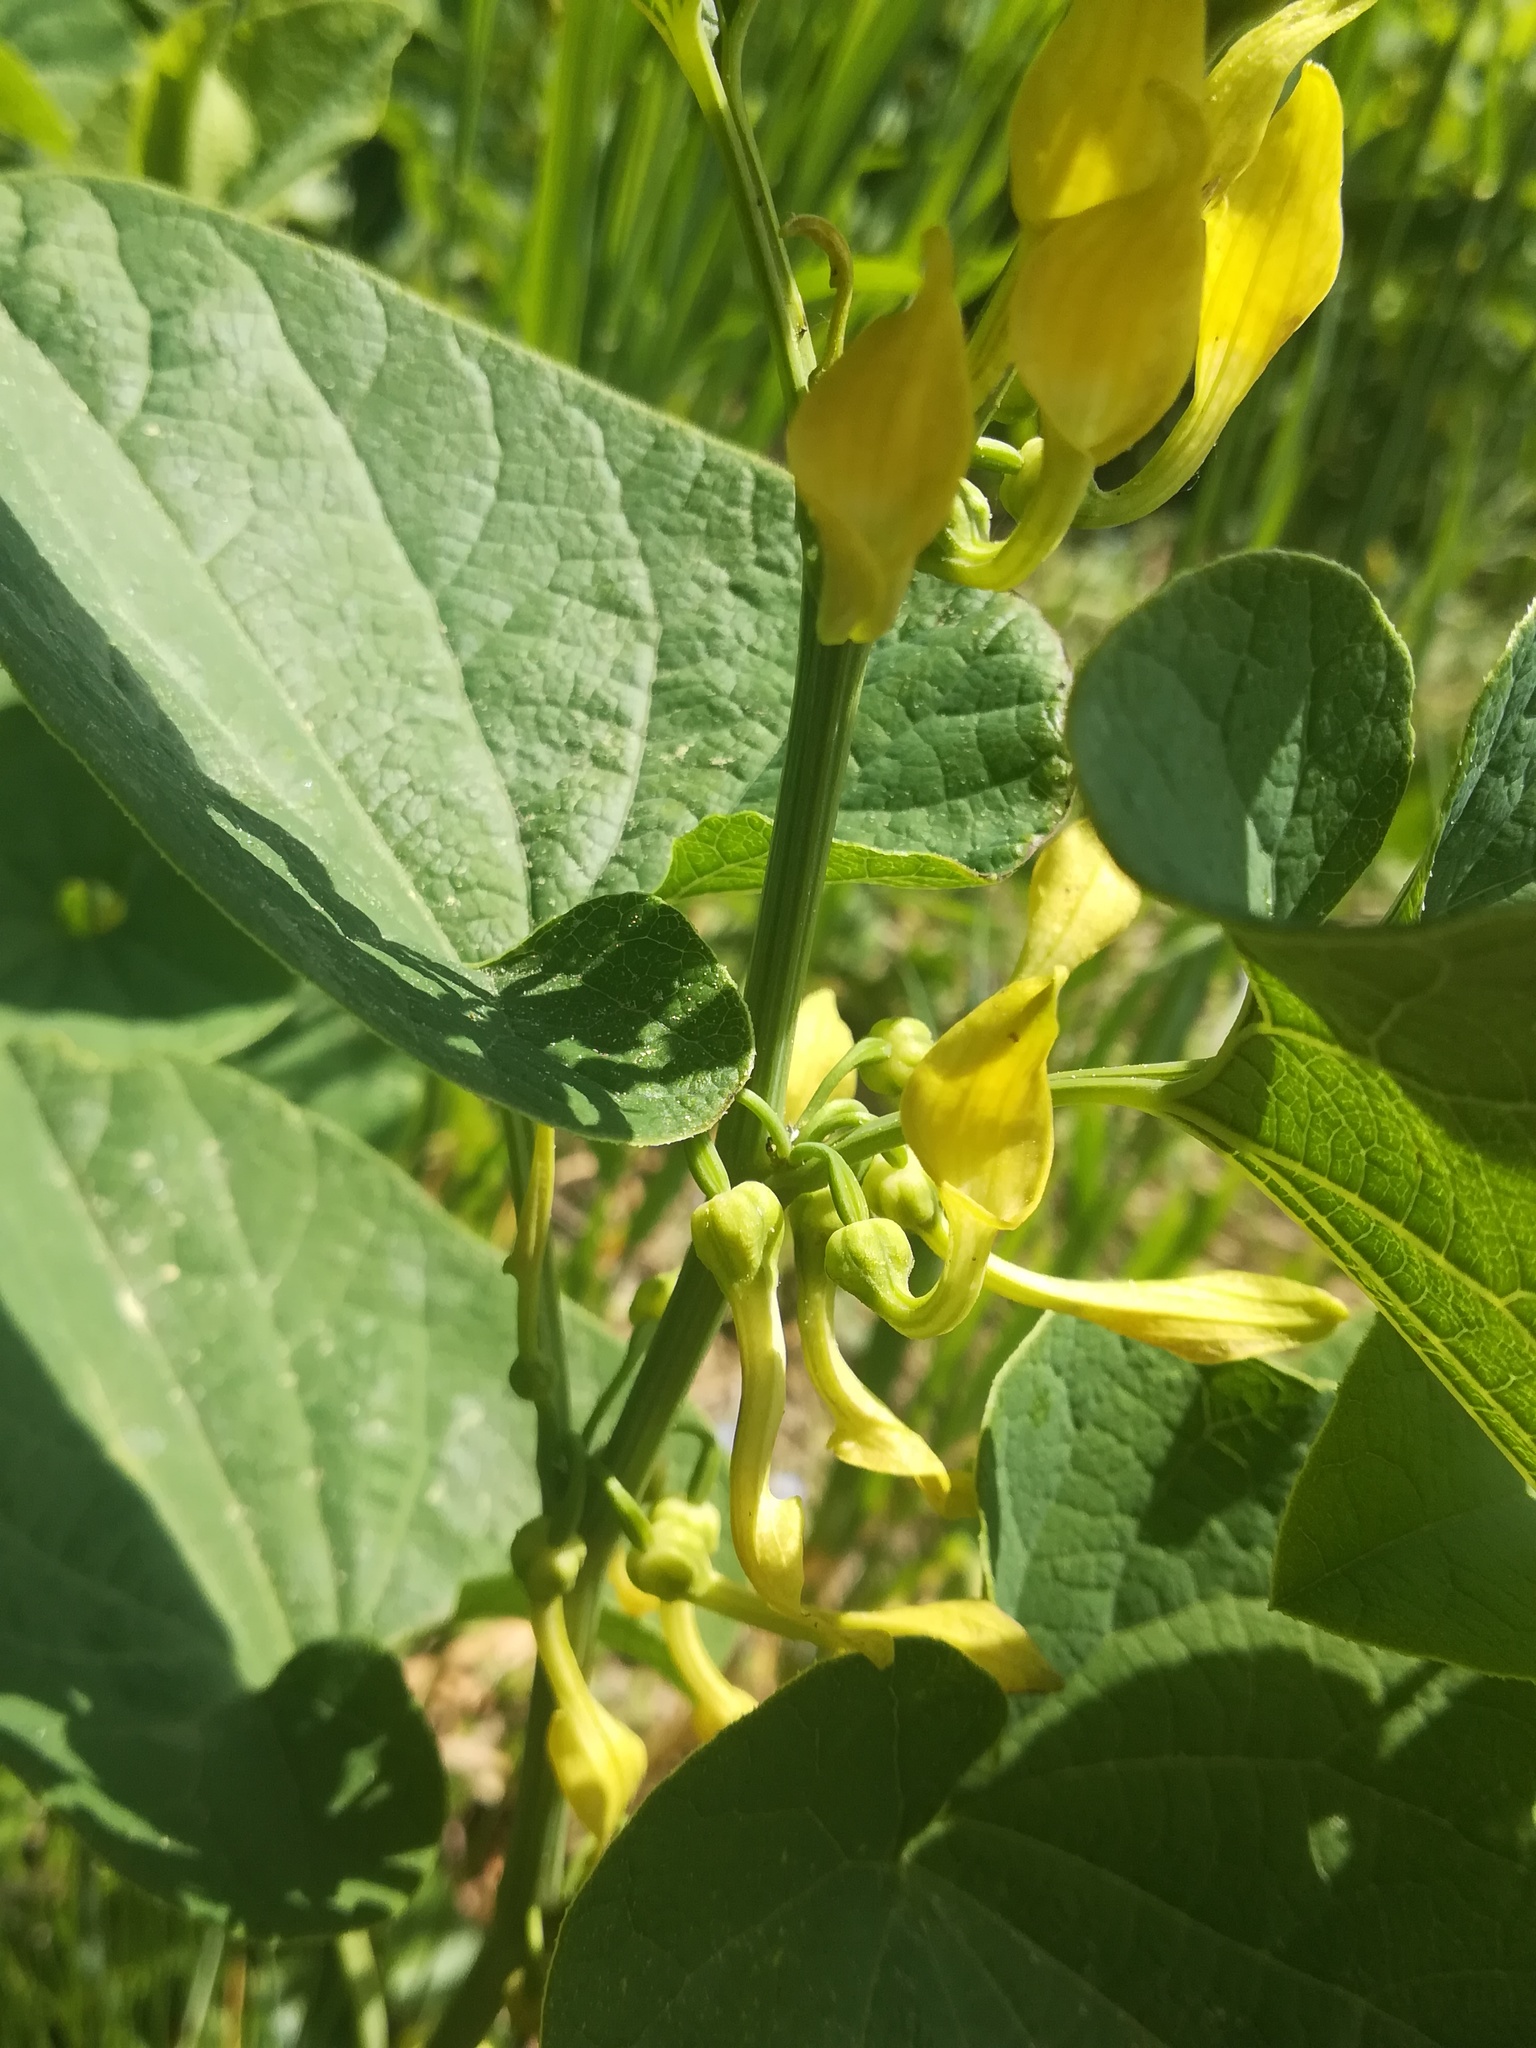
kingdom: Plantae
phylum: Tracheophyta
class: Magnoliopsida
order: Piperales
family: Aristolochiaceae
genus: Aristolochia
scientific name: Aristolochia clematitis
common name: Birthwort
